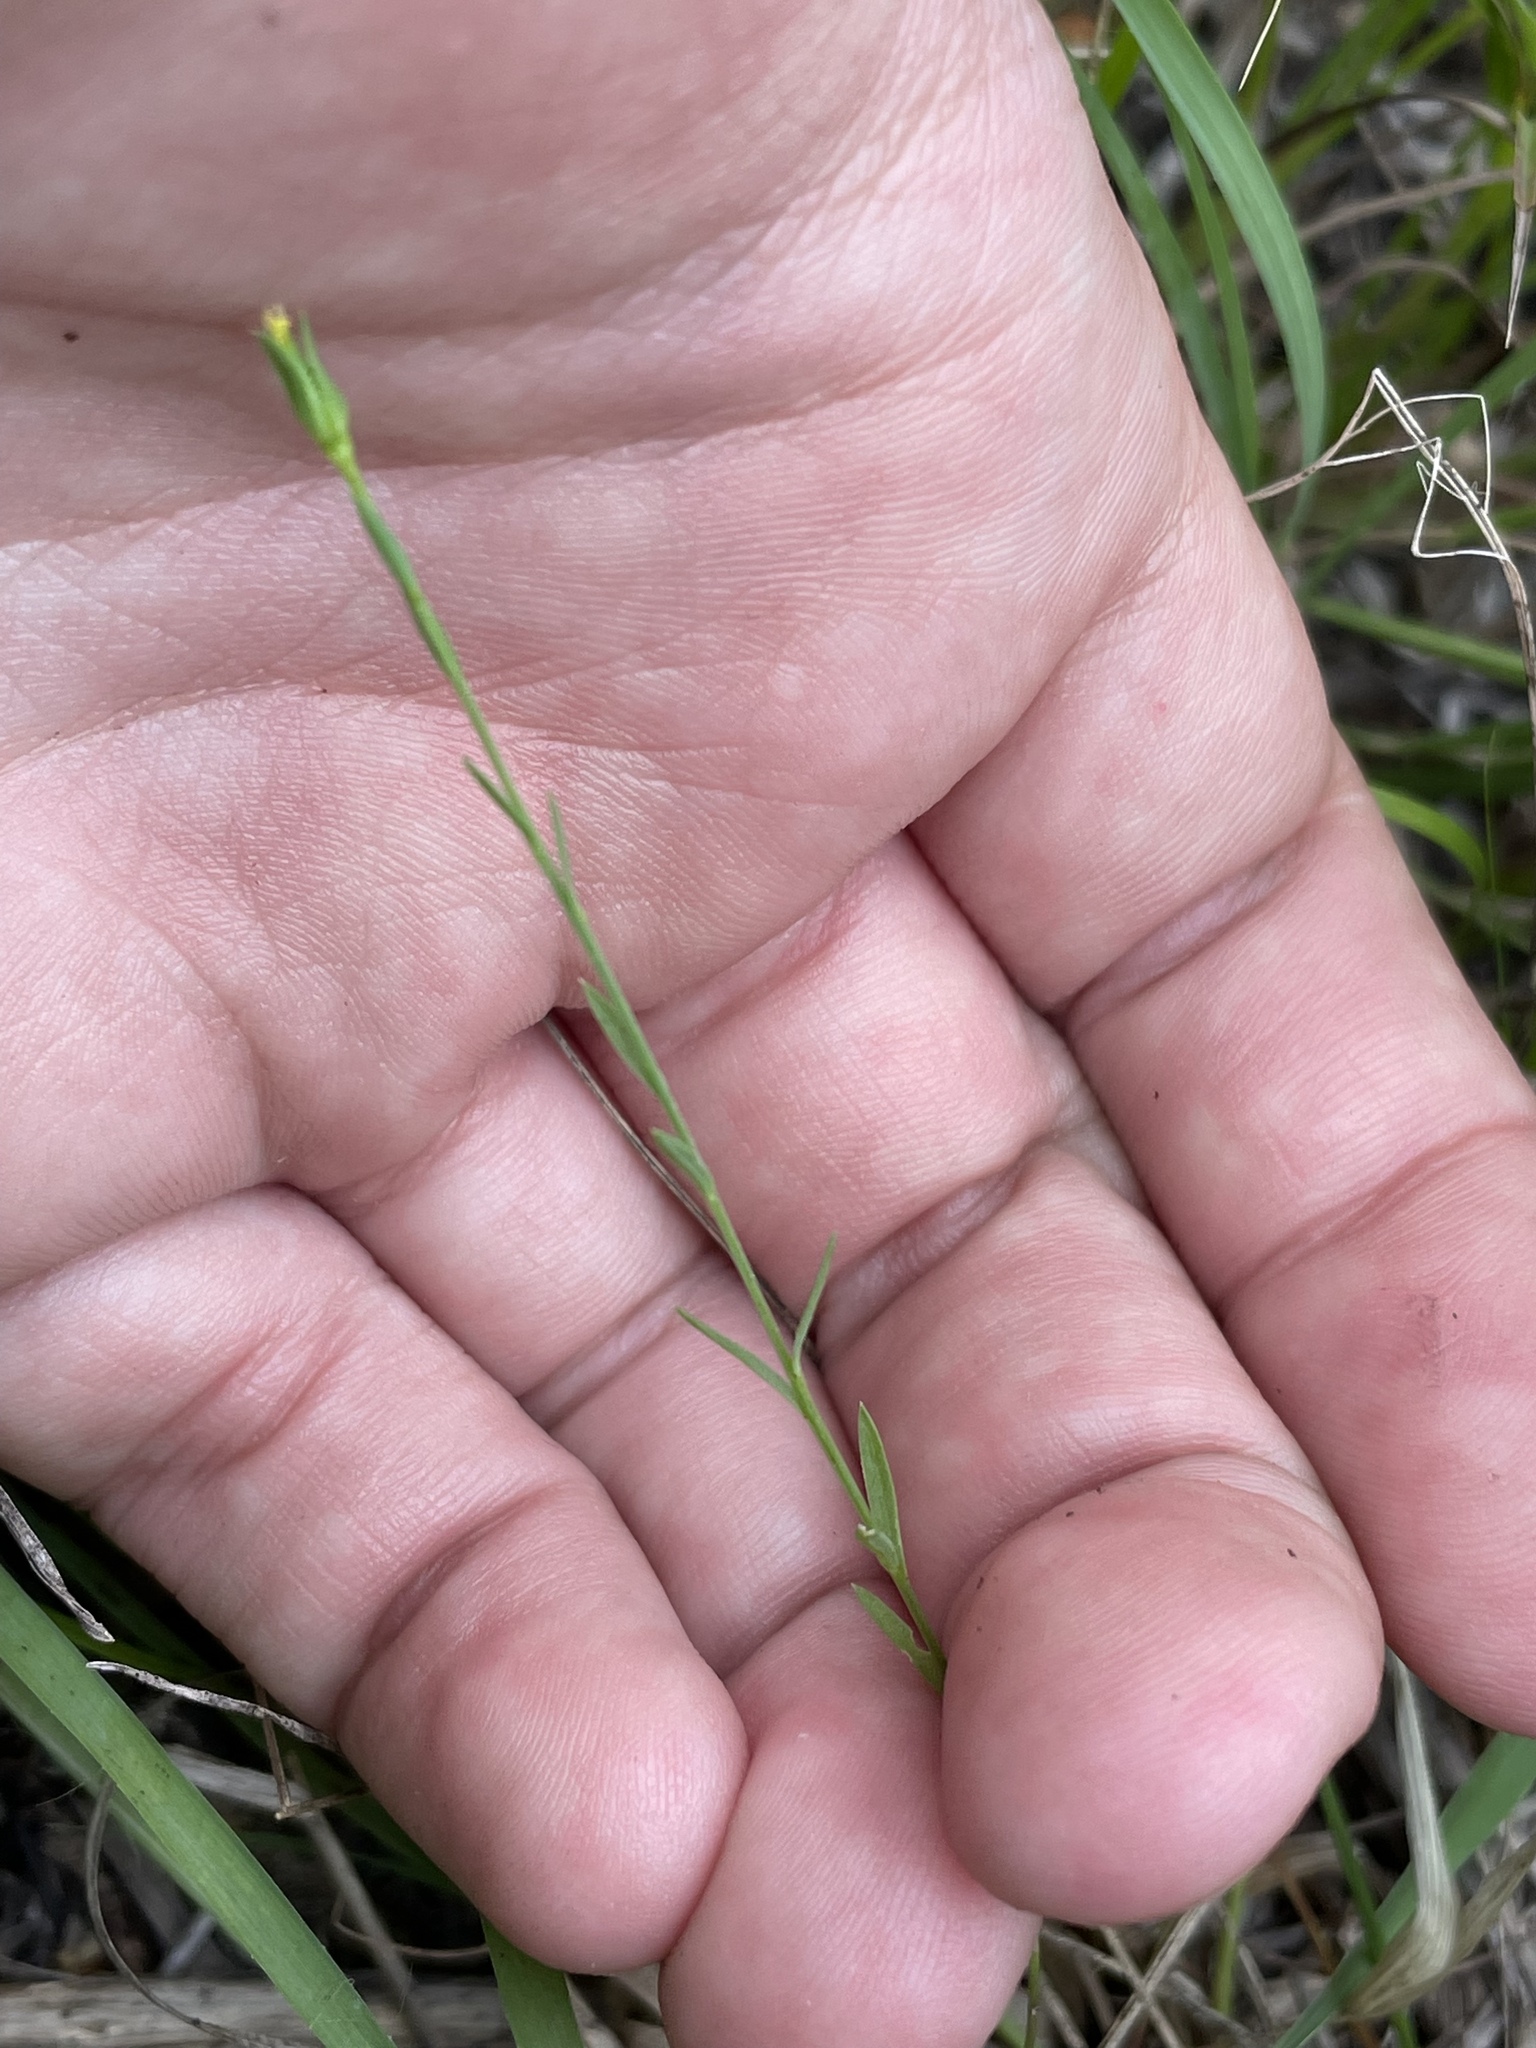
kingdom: Plantae
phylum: Tracheophyta
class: Magnoliopsida
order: Malpighiales
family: Linaceae
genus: Linum
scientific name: Linum sulcatum
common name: Grooved flax
